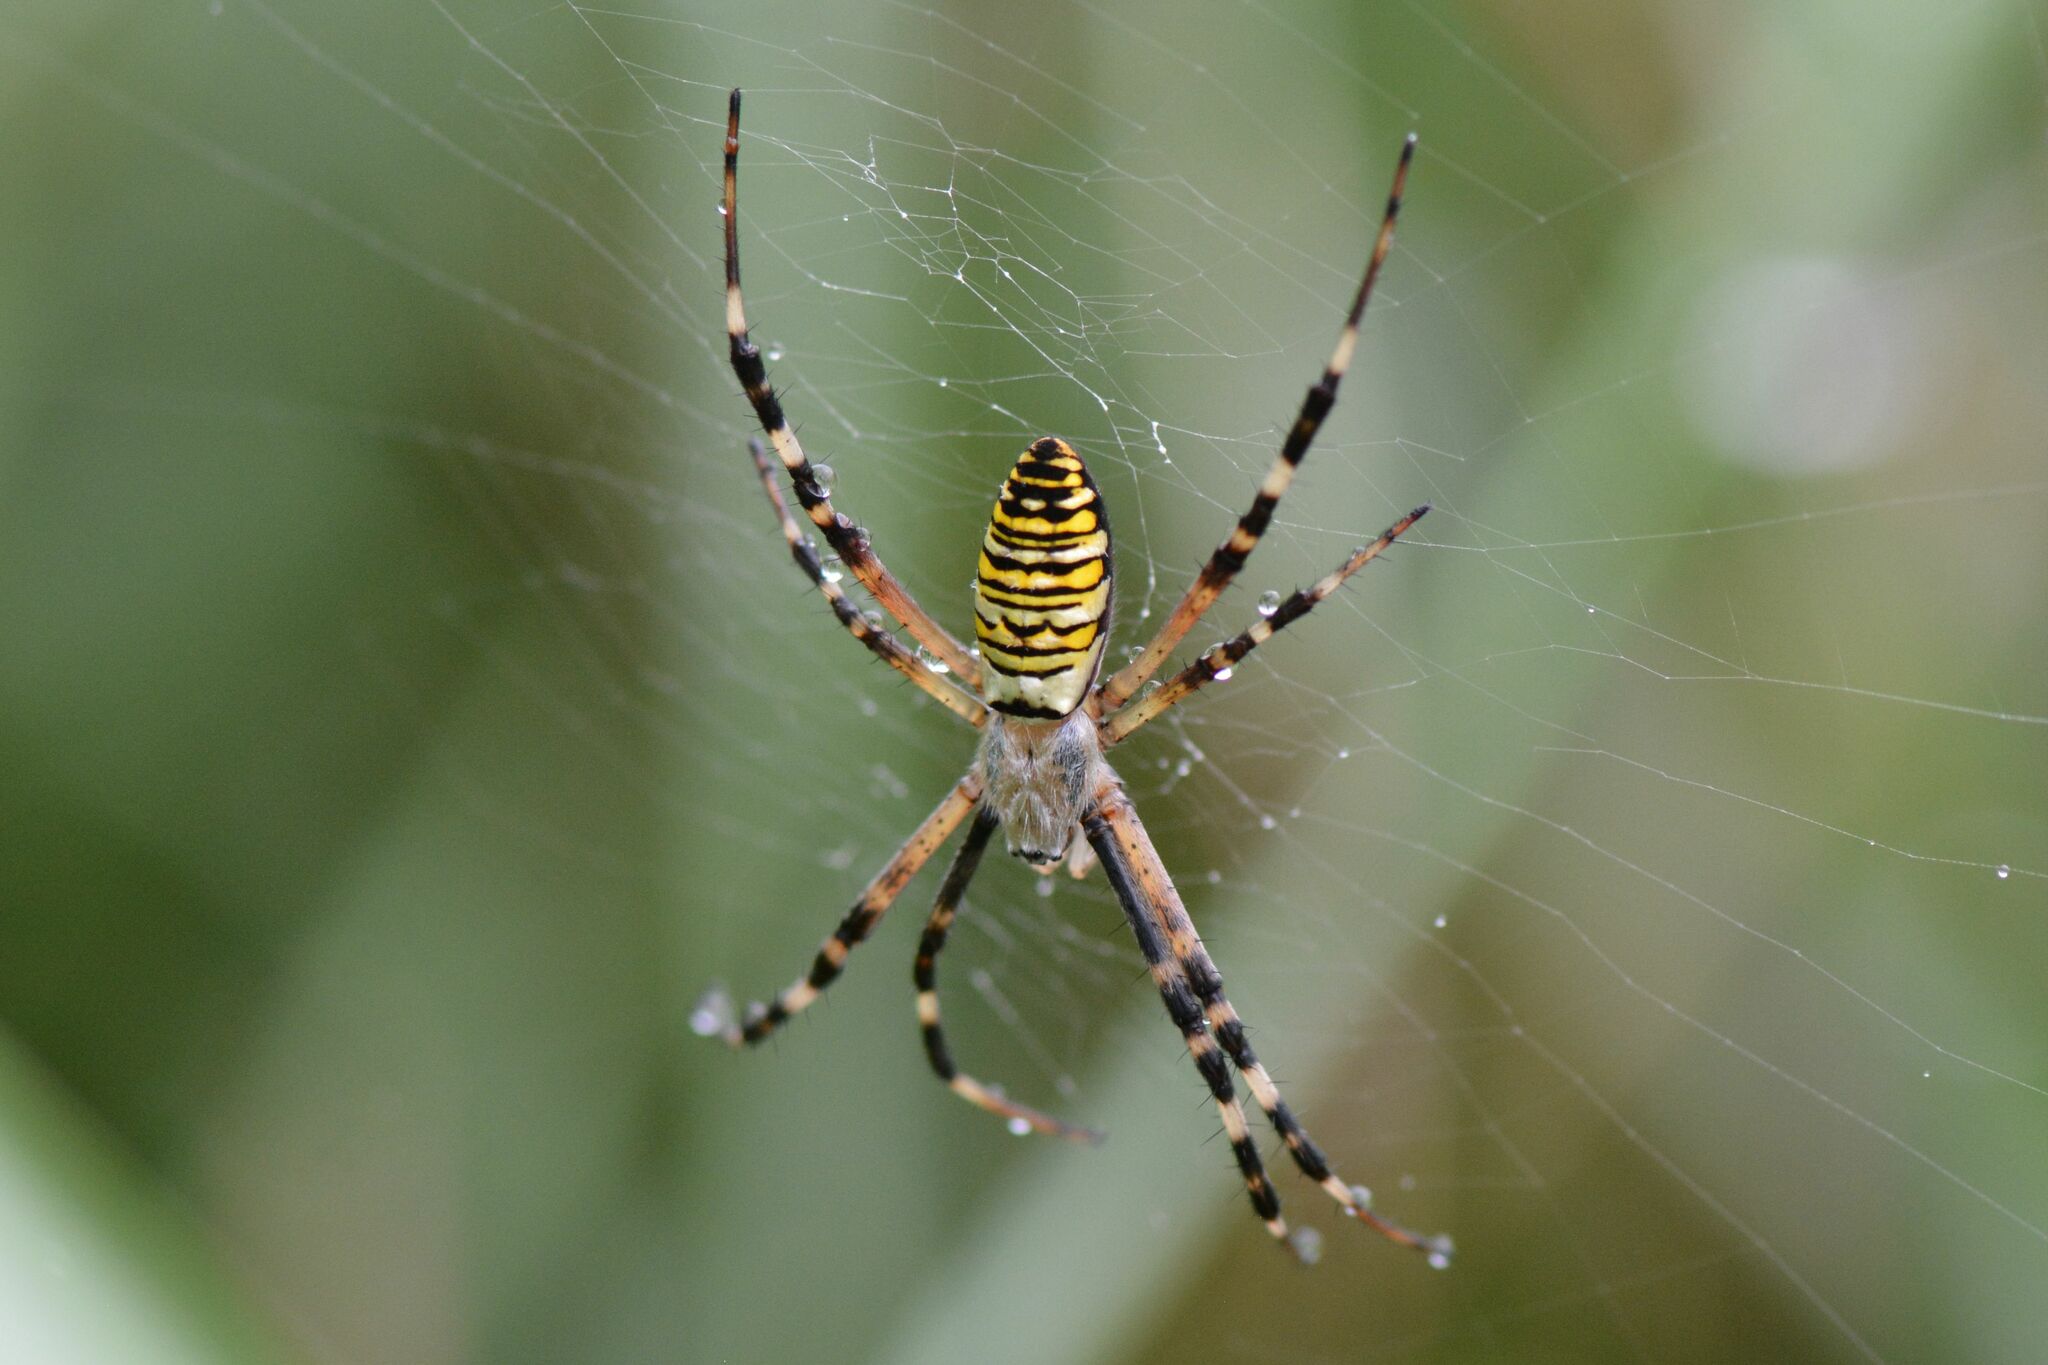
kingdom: Animalia
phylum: Arthropoda
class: Arachnida
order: Araneae
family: Araneidae
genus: Argiope
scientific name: Argiope bruennichi
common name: Wasp spider
